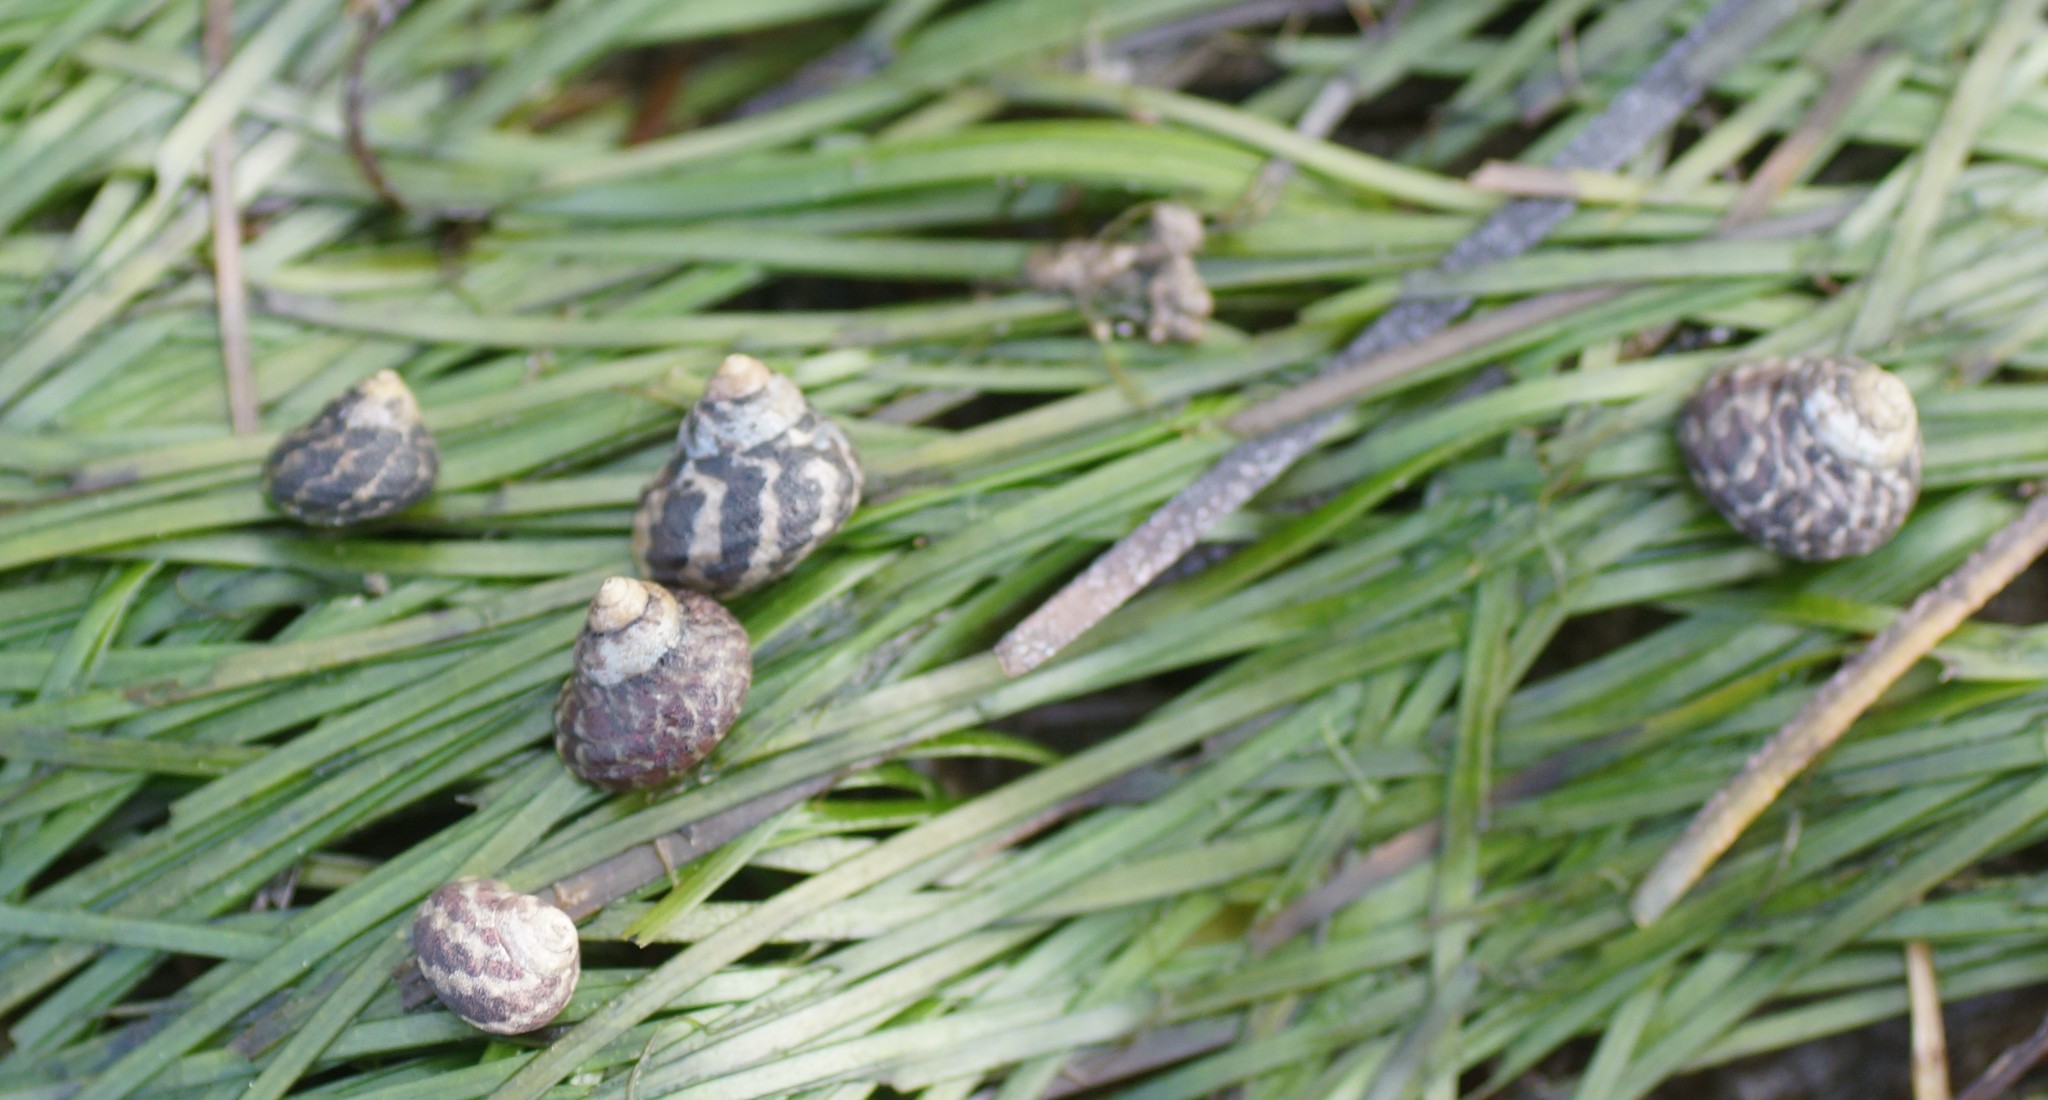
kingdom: Animalia
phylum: Mollusca
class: Gastropoda
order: Trochida
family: Trochidae
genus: Austrocochlea
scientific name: Austrocochlea porcata
